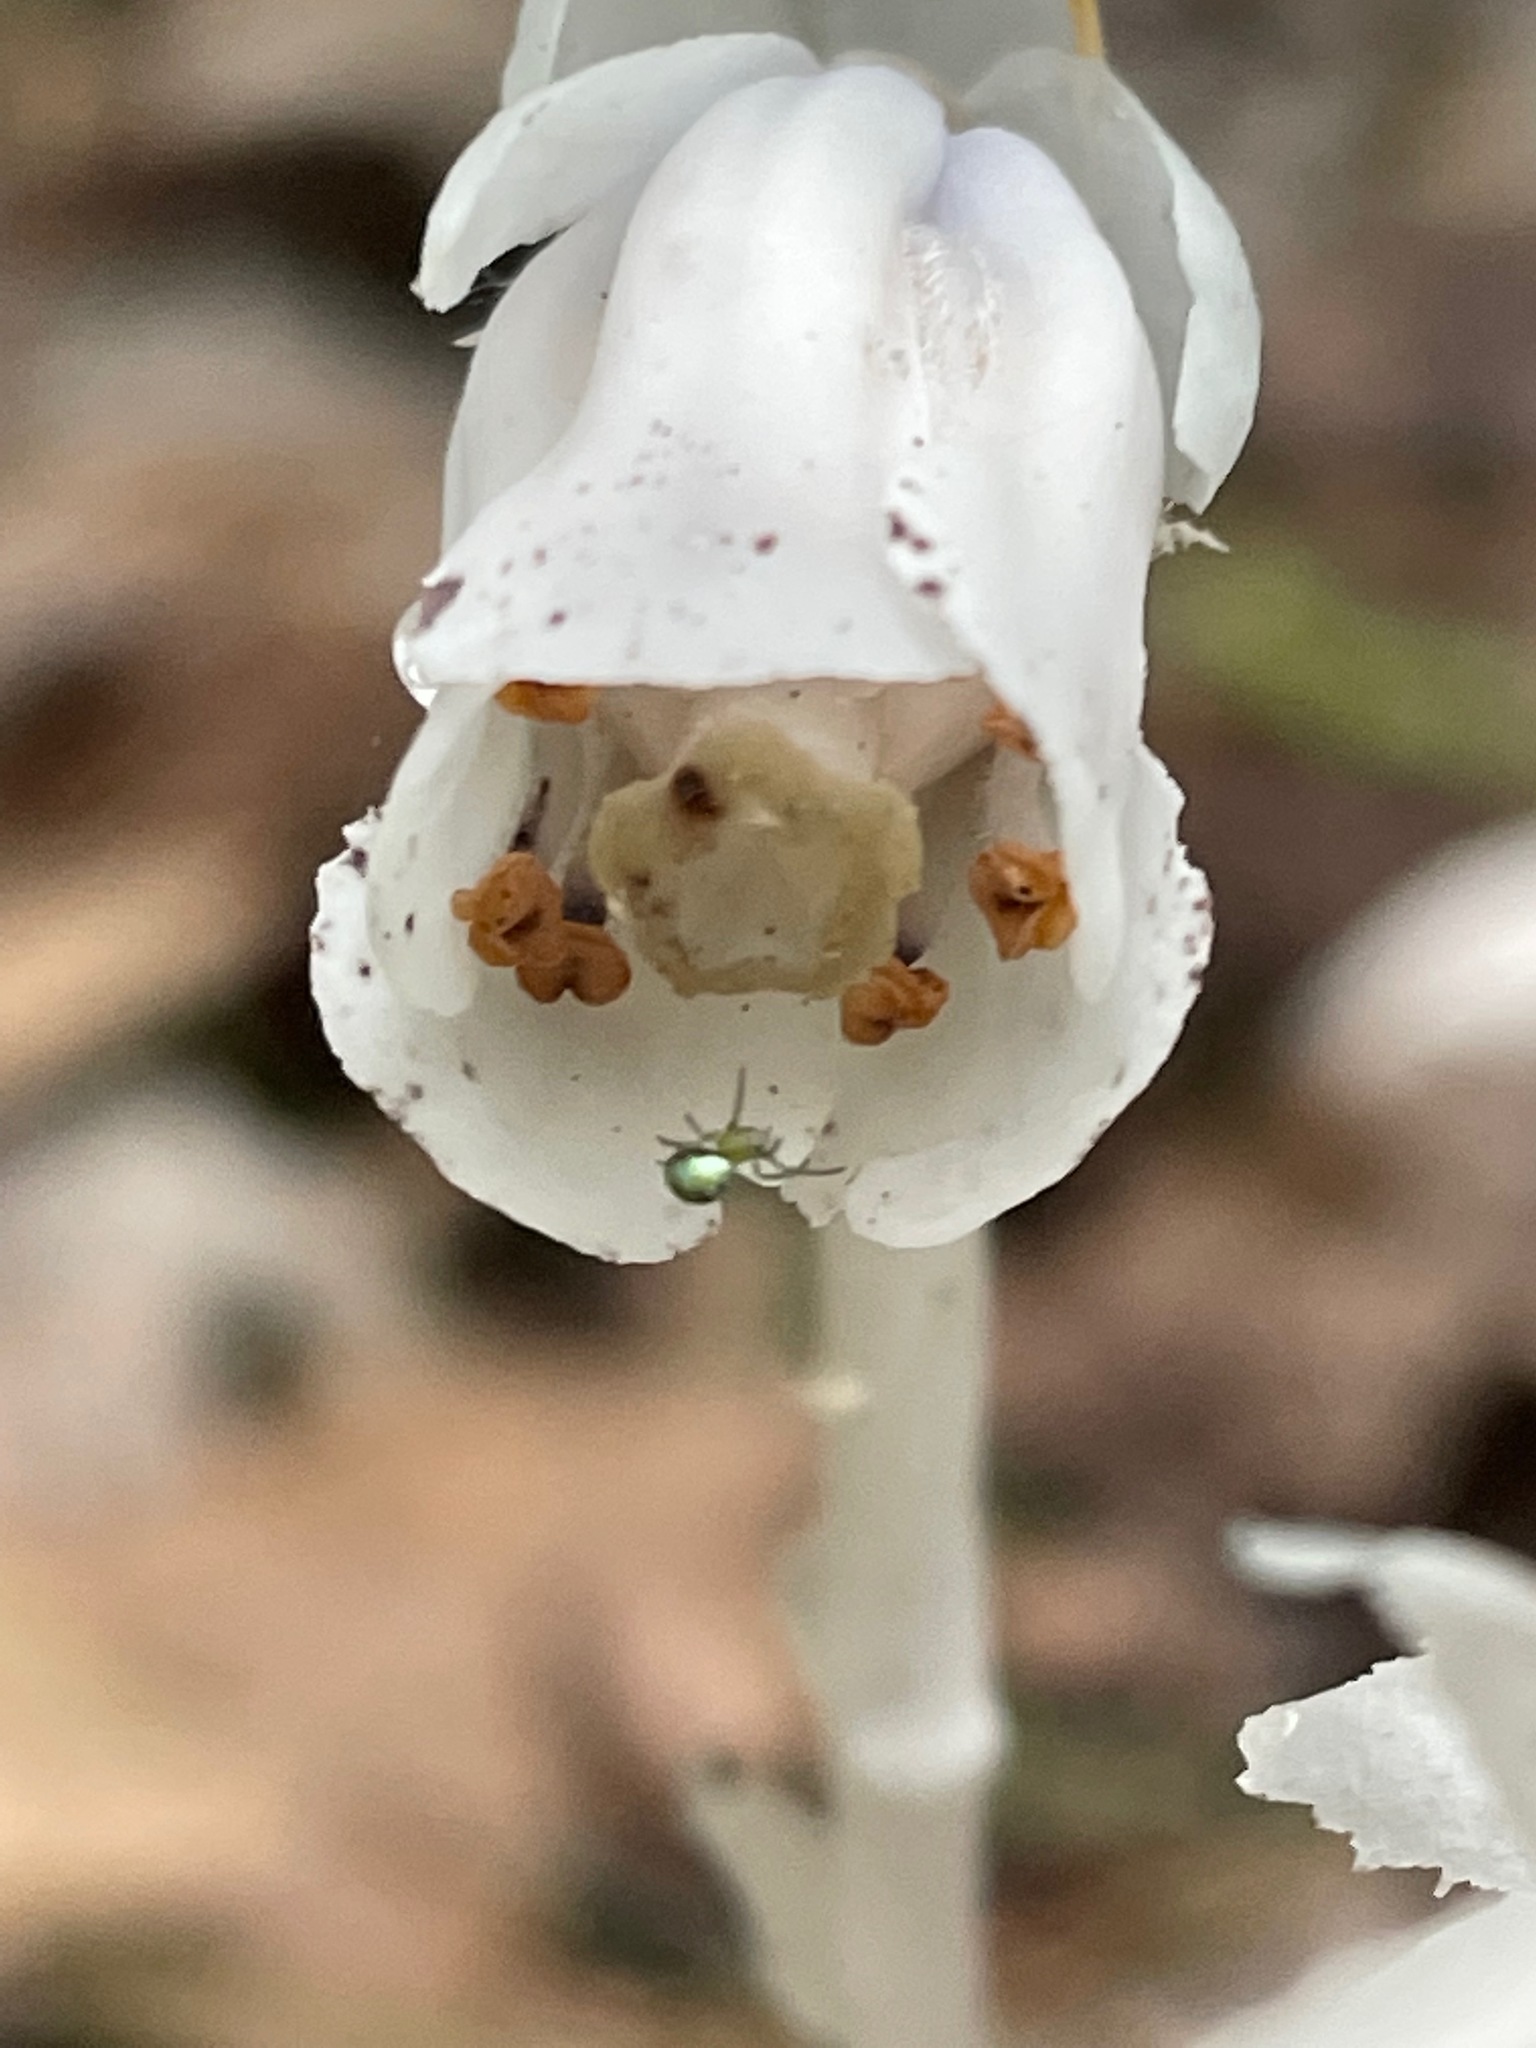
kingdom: Plantae
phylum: Tracheophyta
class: Magnoliopsida
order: Ericales
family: Ericaceae
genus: Monotropa
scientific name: Monotropa uniflora
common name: Convulsion root
